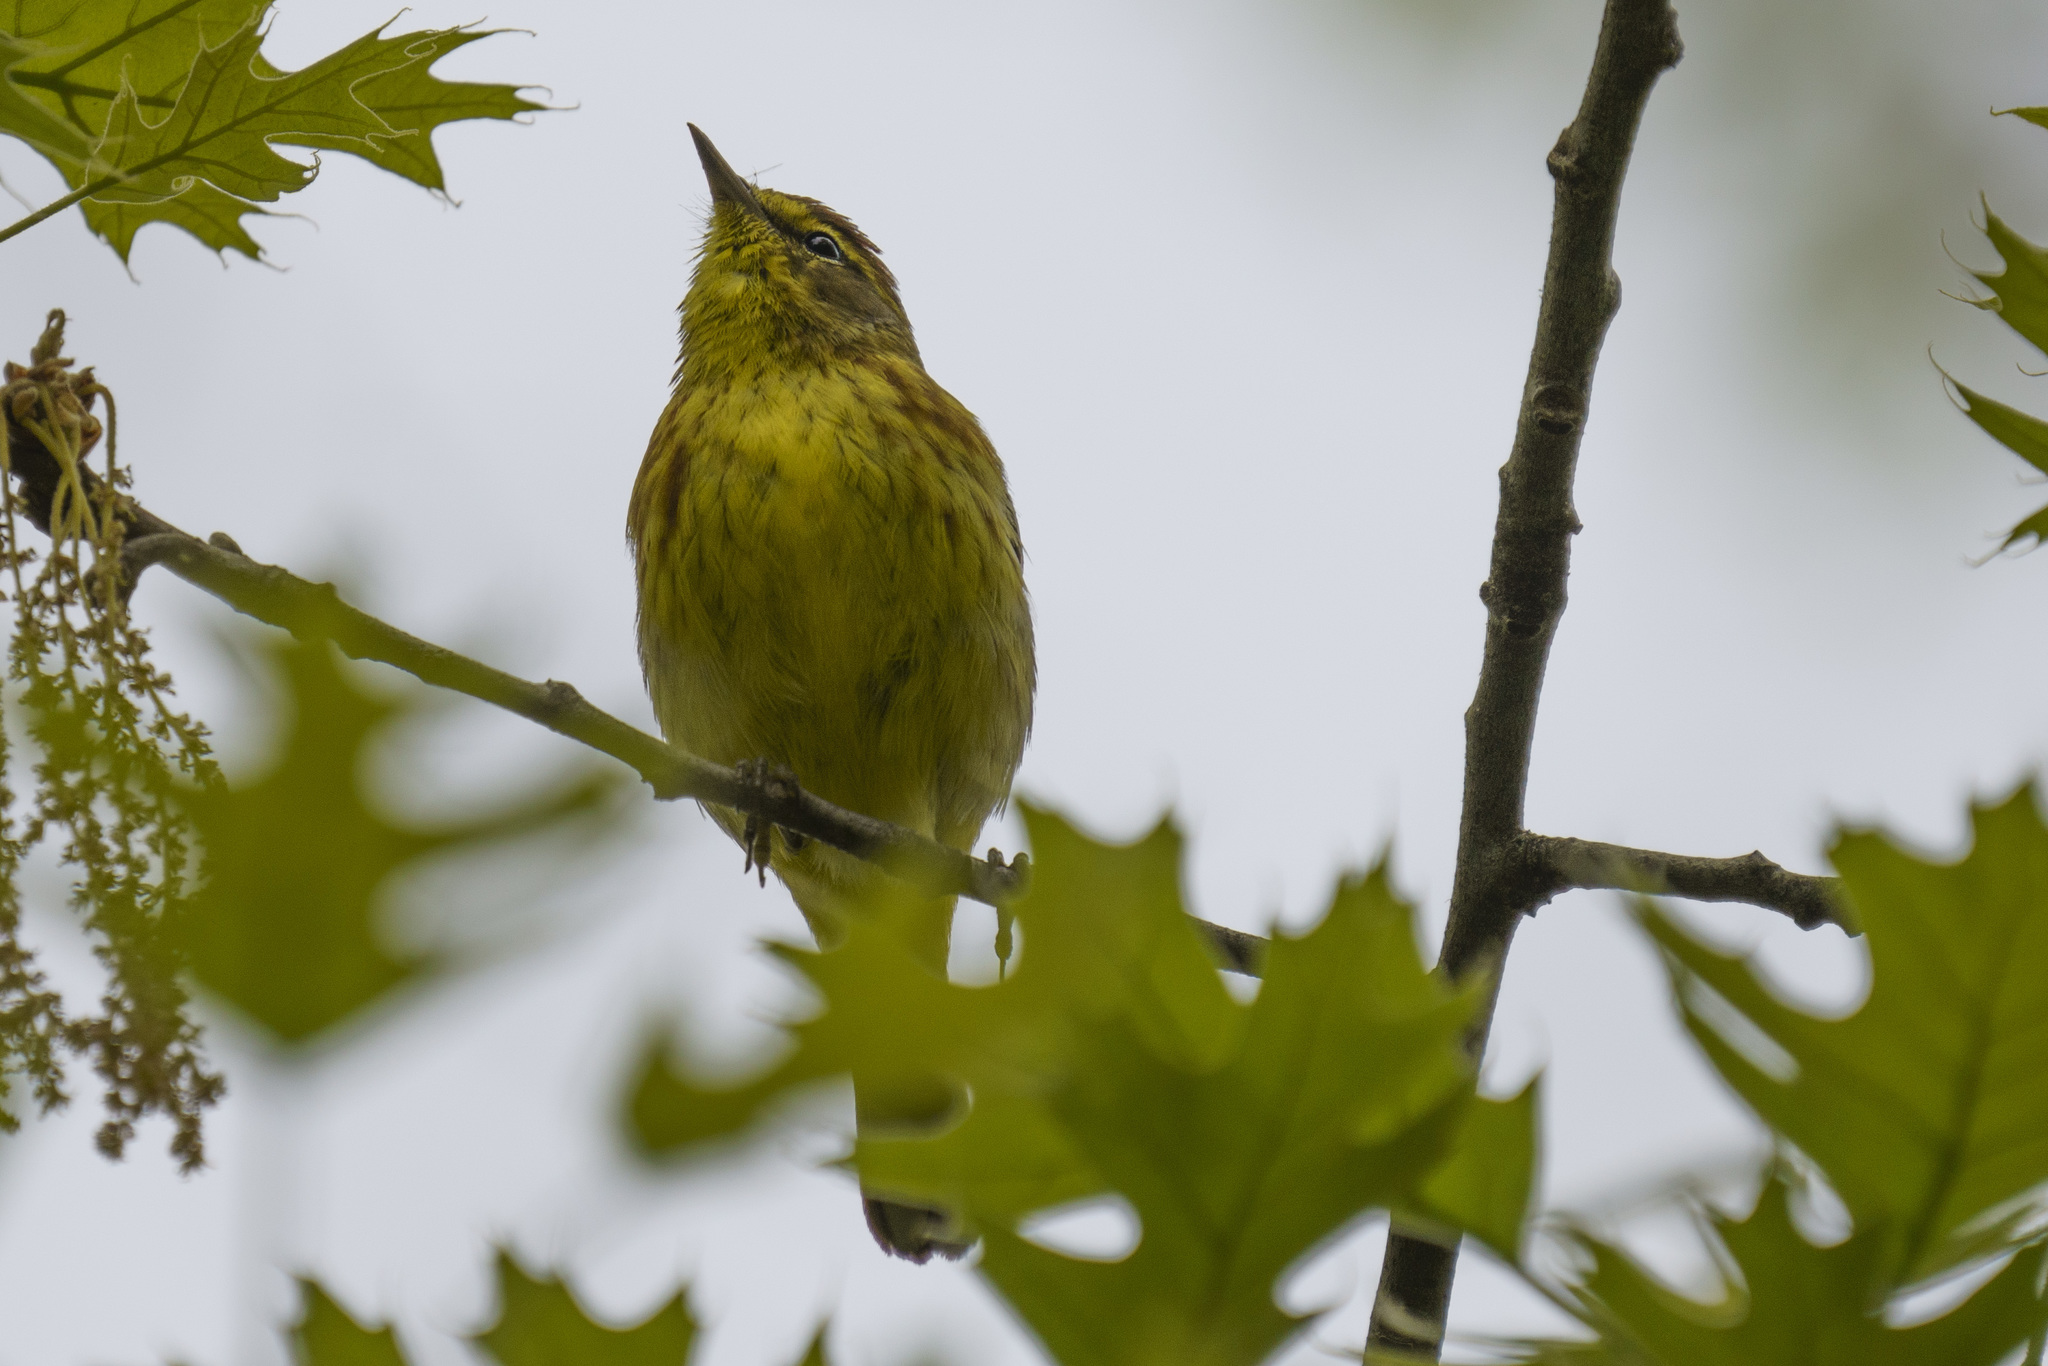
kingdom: Animalia
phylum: Chordata
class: Aves
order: Passeriformes
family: Parulidae
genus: Setophaga
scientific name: Setophaga palmarum
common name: Palm warbler
